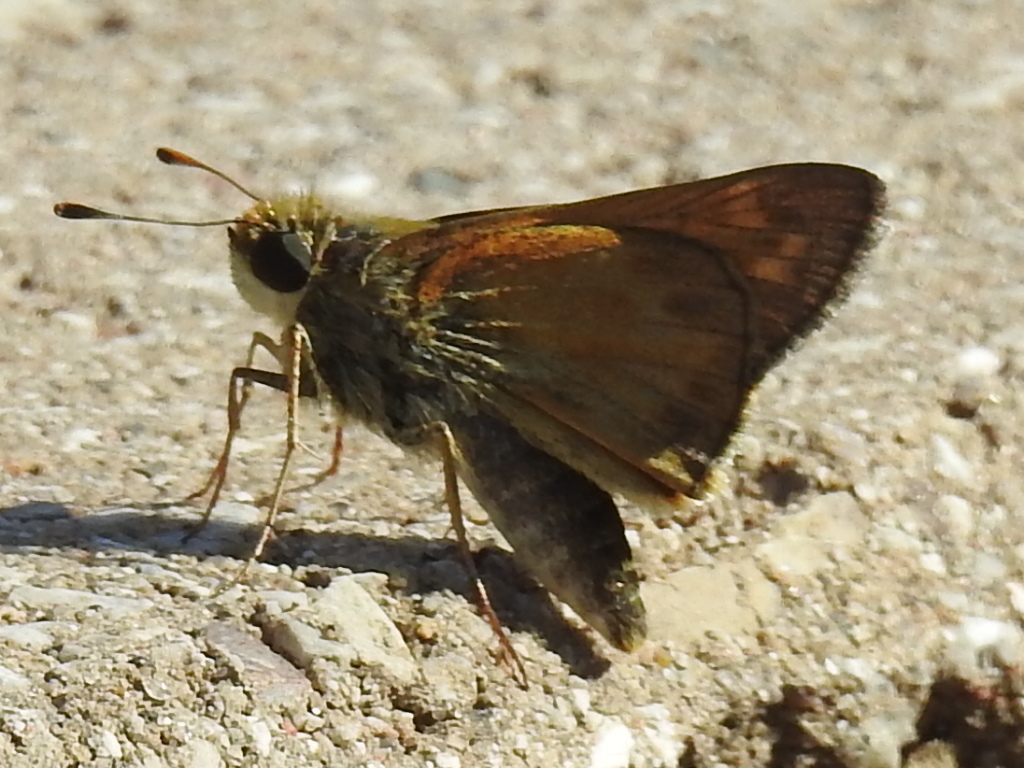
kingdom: Animalia
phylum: Arthropoda
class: Insecta
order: Lepidoptera
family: Hesperiidae
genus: Atalopedes
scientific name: Atalopedes
